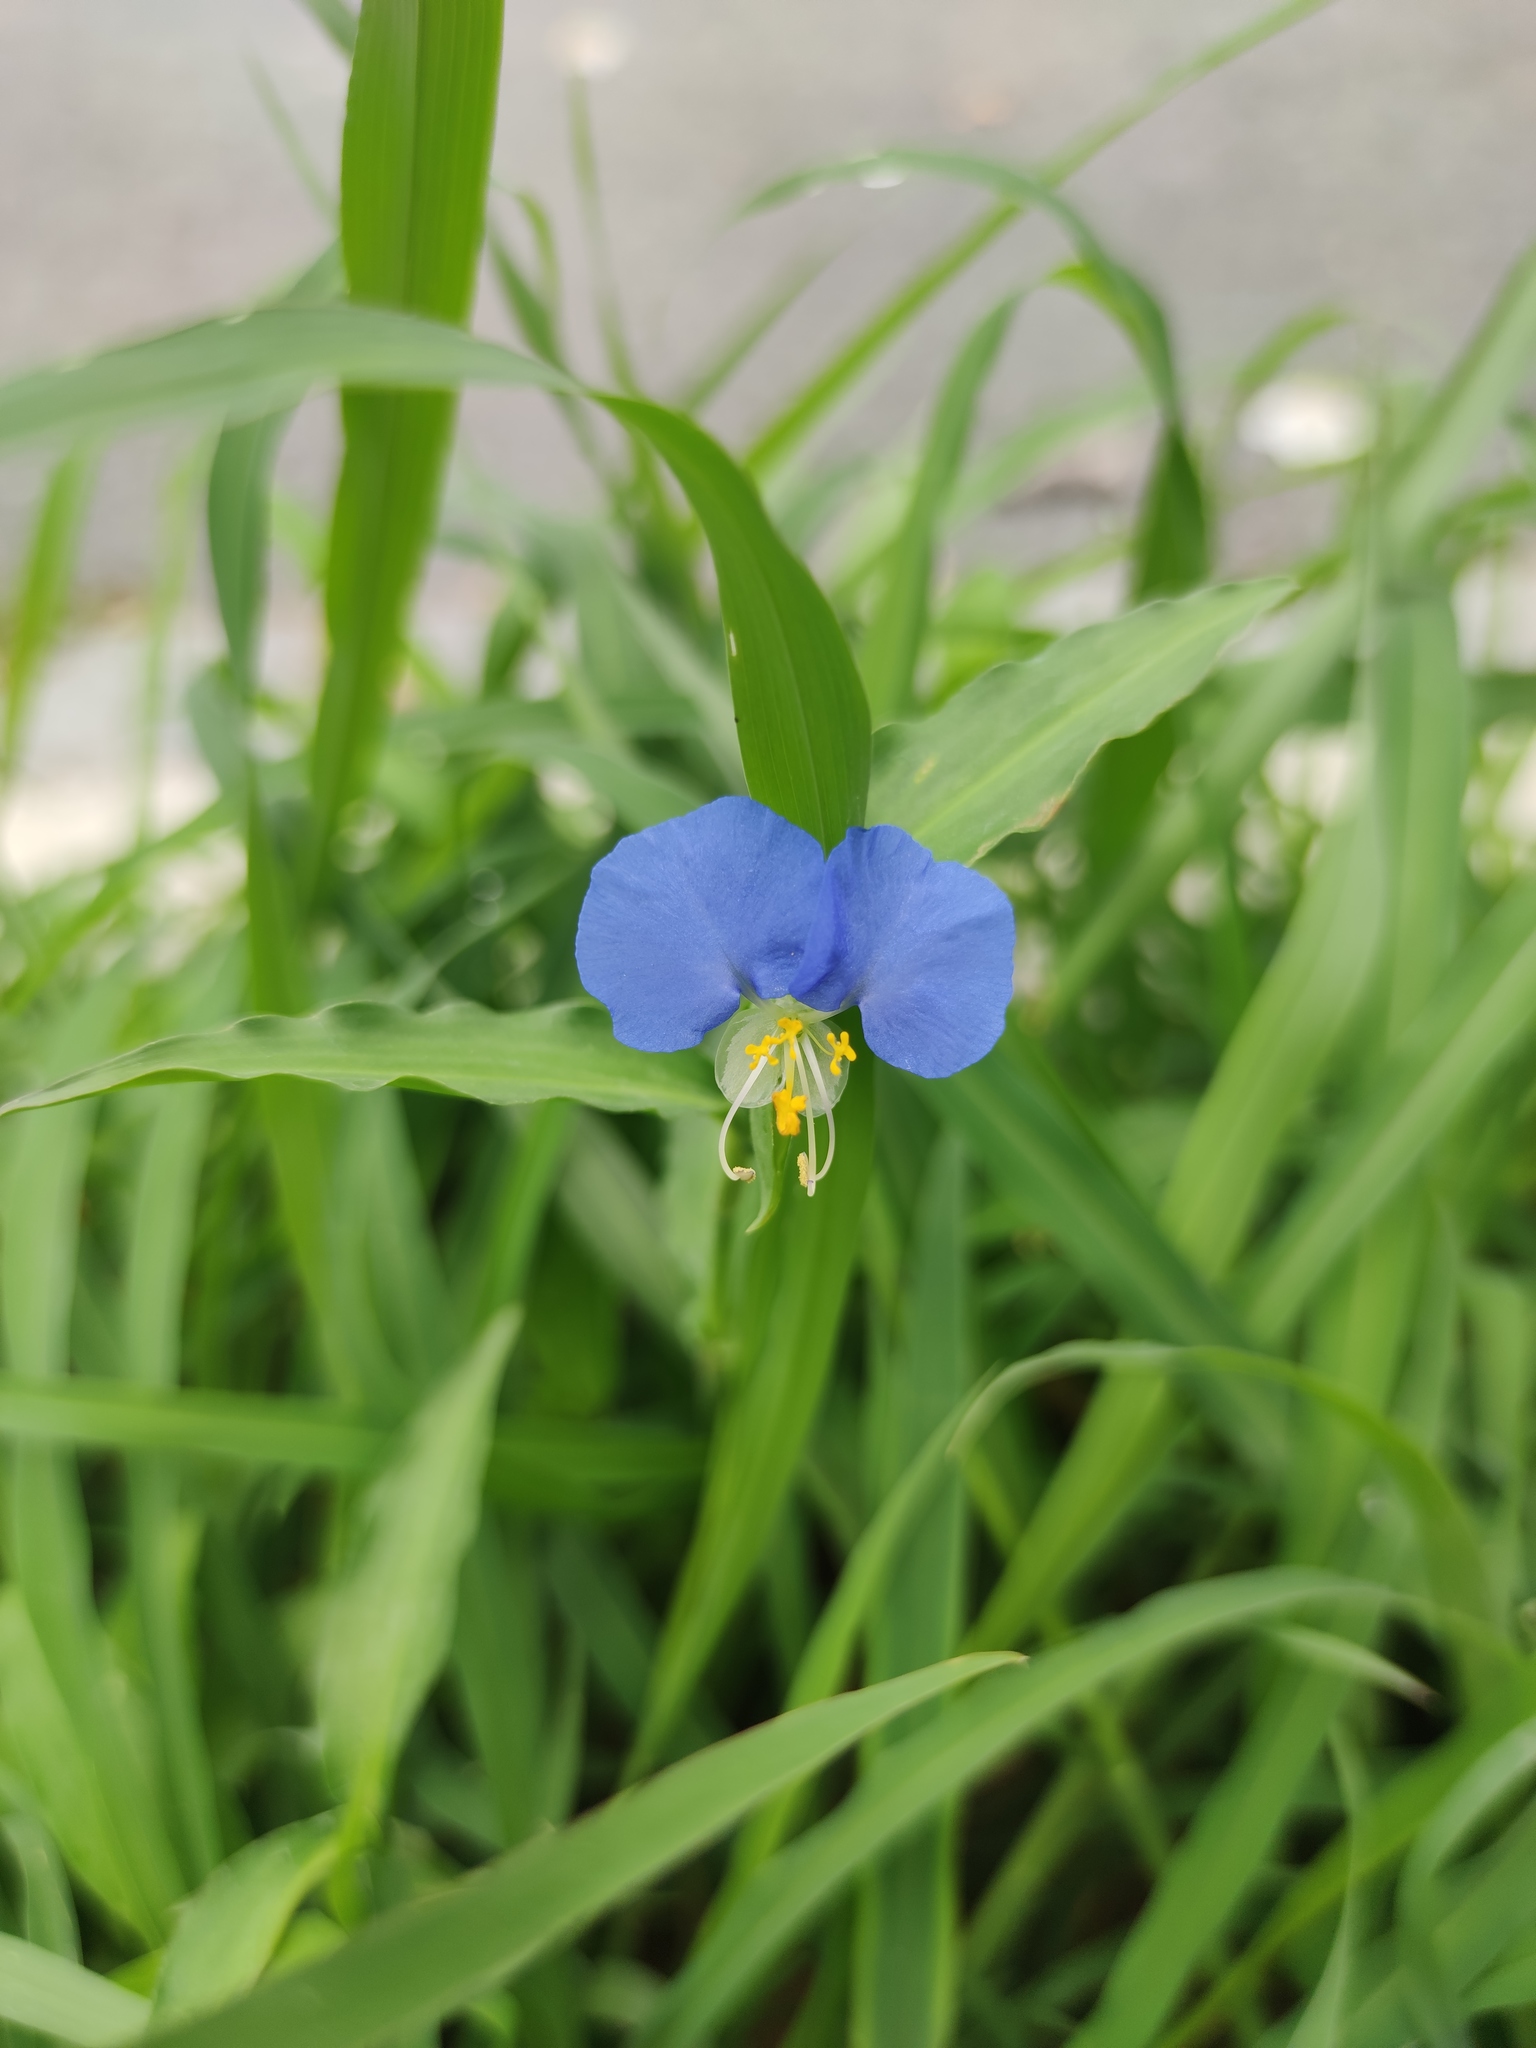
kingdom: Plantae
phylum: Tracheophyta
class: Liliopsida
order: Commelinales
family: Commelinaceae
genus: Commelina
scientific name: Commelina erecta
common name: Blousel blommetjie
